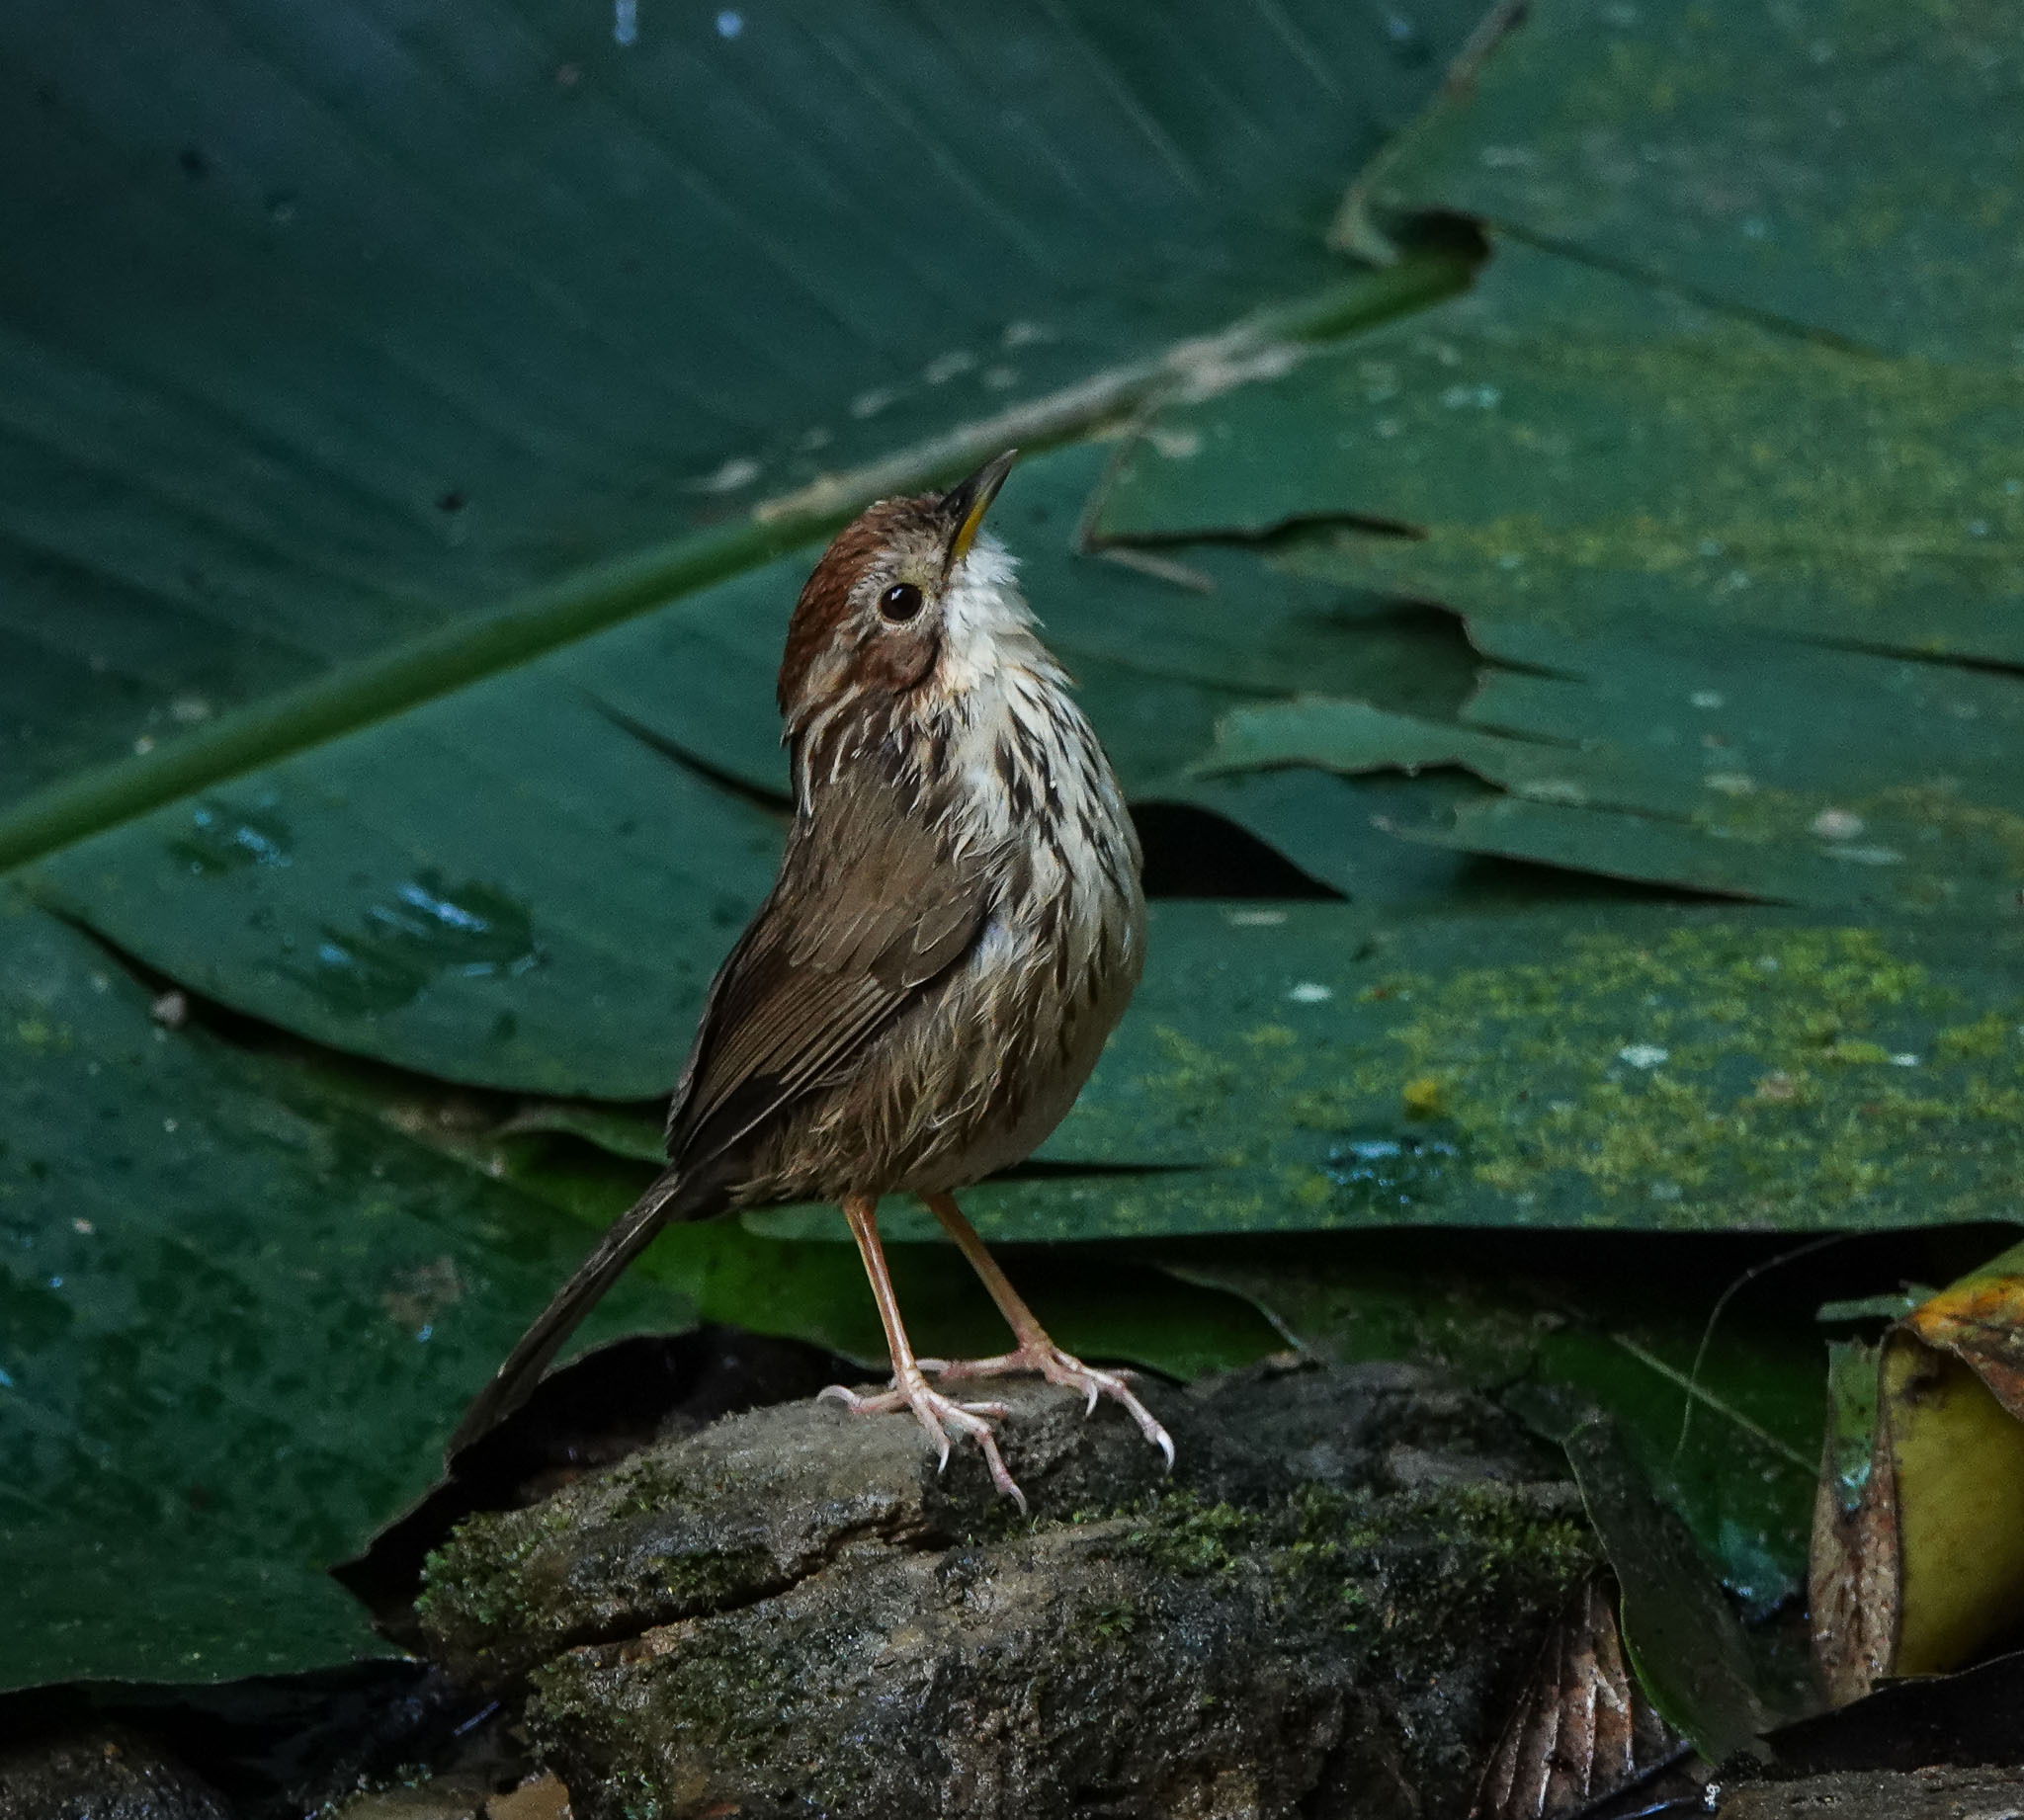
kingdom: Animalia
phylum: Chordata
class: Aves
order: Passeriformes
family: Pellorneidae
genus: Pellorneum
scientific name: Pellorneum ruficeps
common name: Puff-throated babbler
